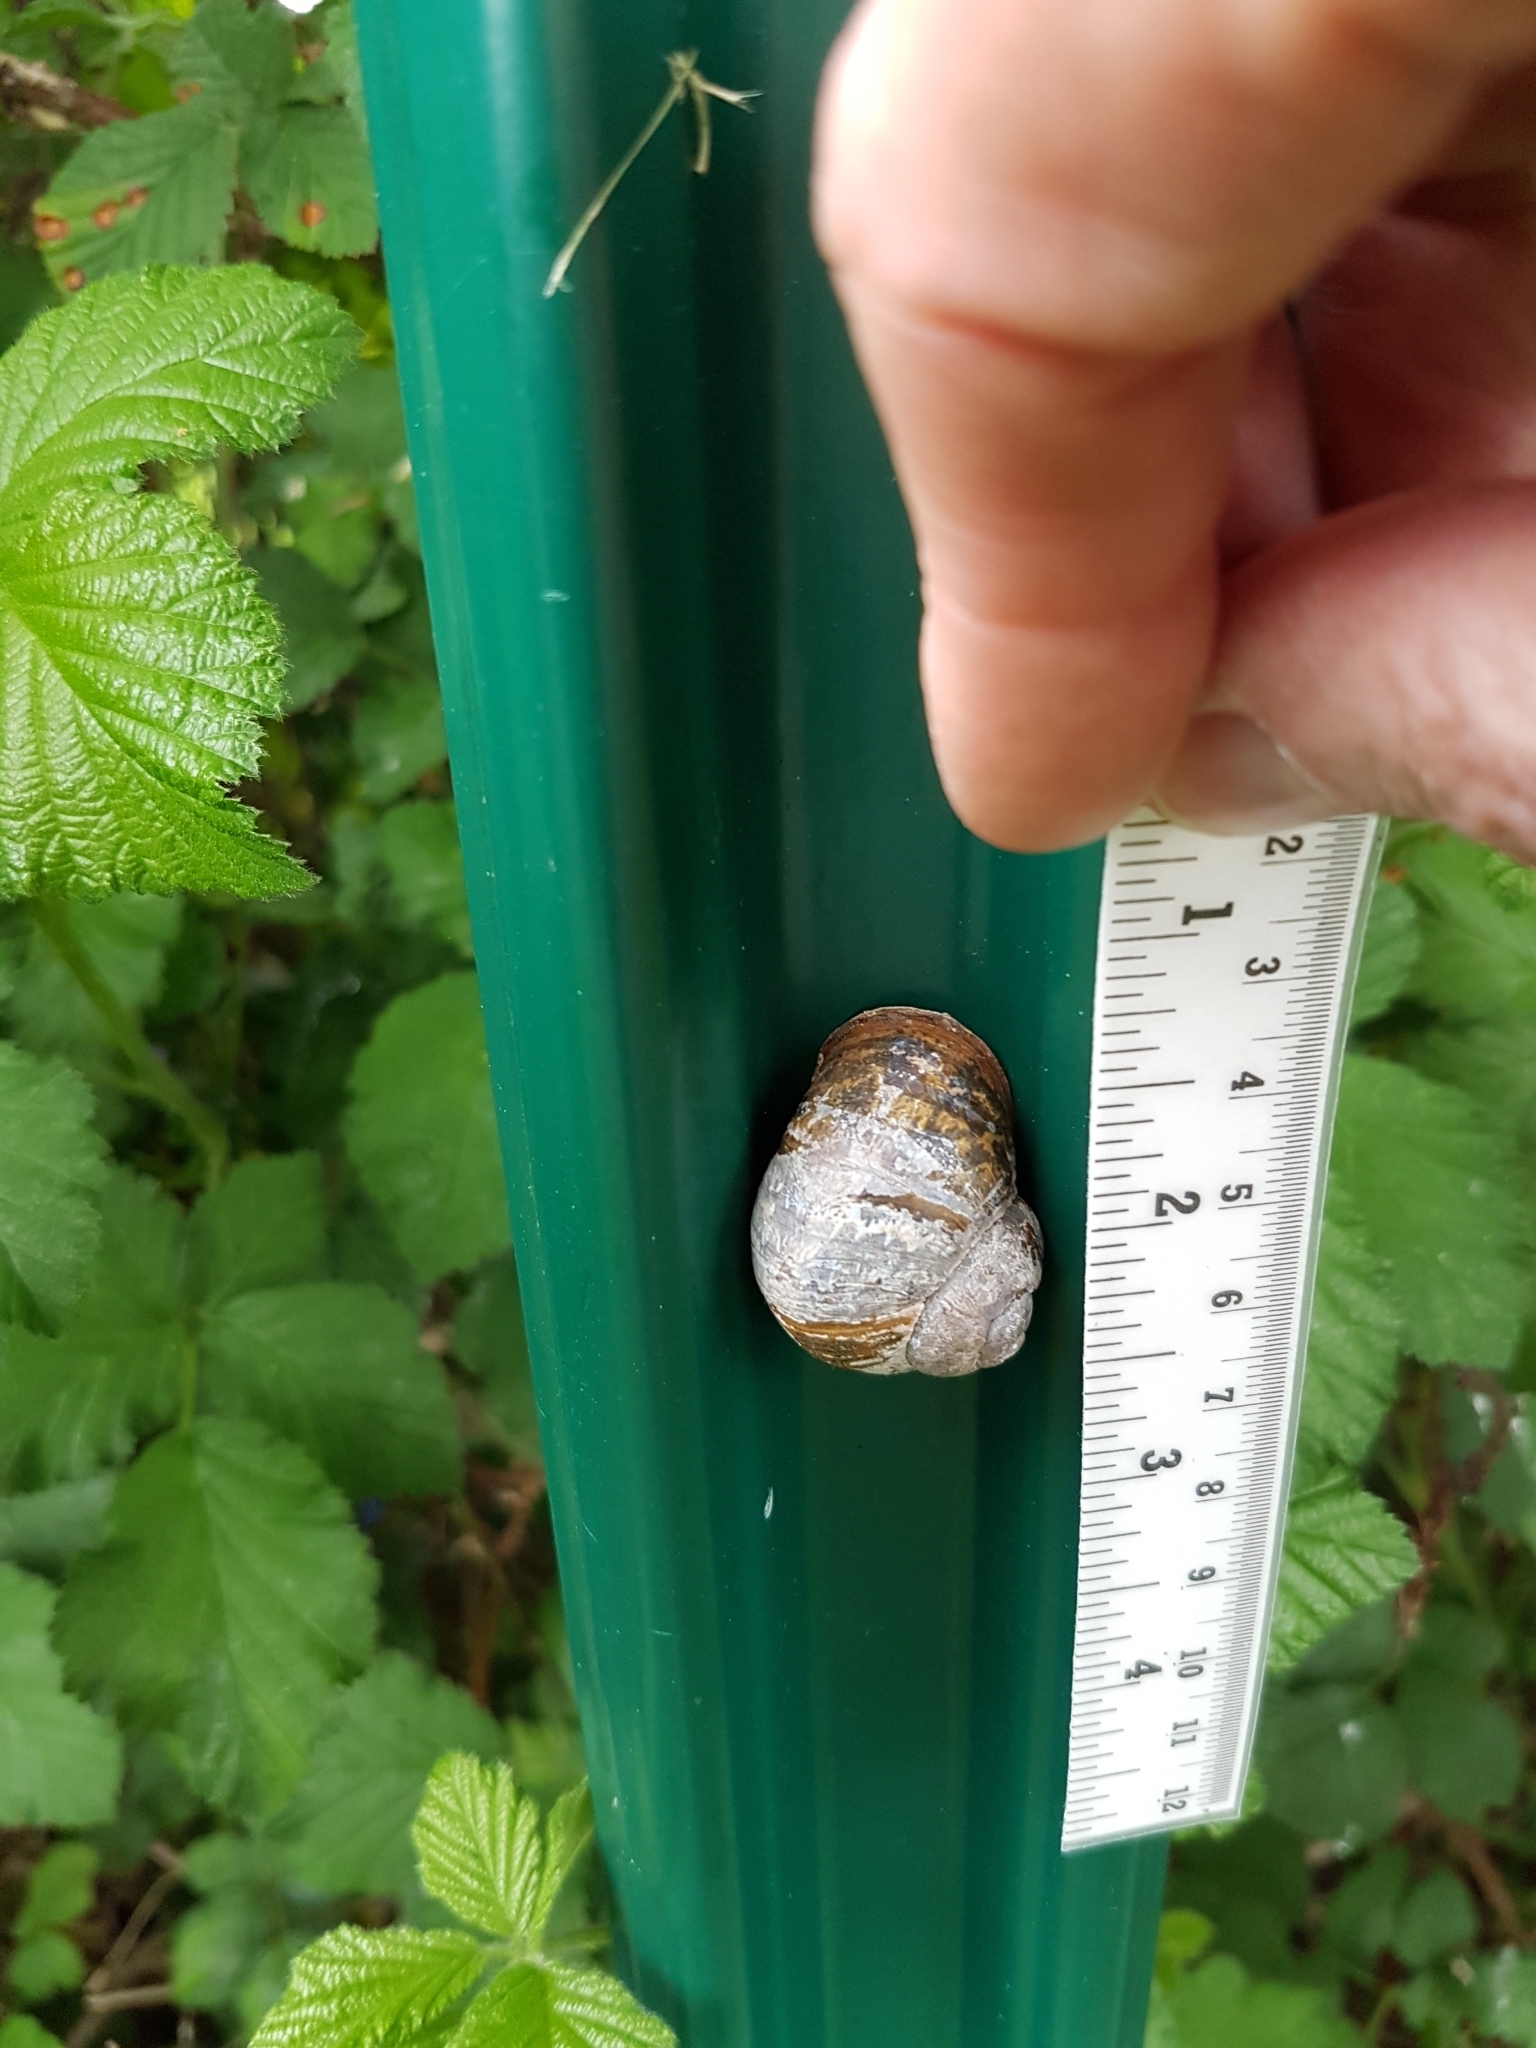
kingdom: Animalia
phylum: Mollusca
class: Gastropoda
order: Stylommatophora
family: Helicidae
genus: Cornu
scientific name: Cornu aspersum
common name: Brown garden snail
